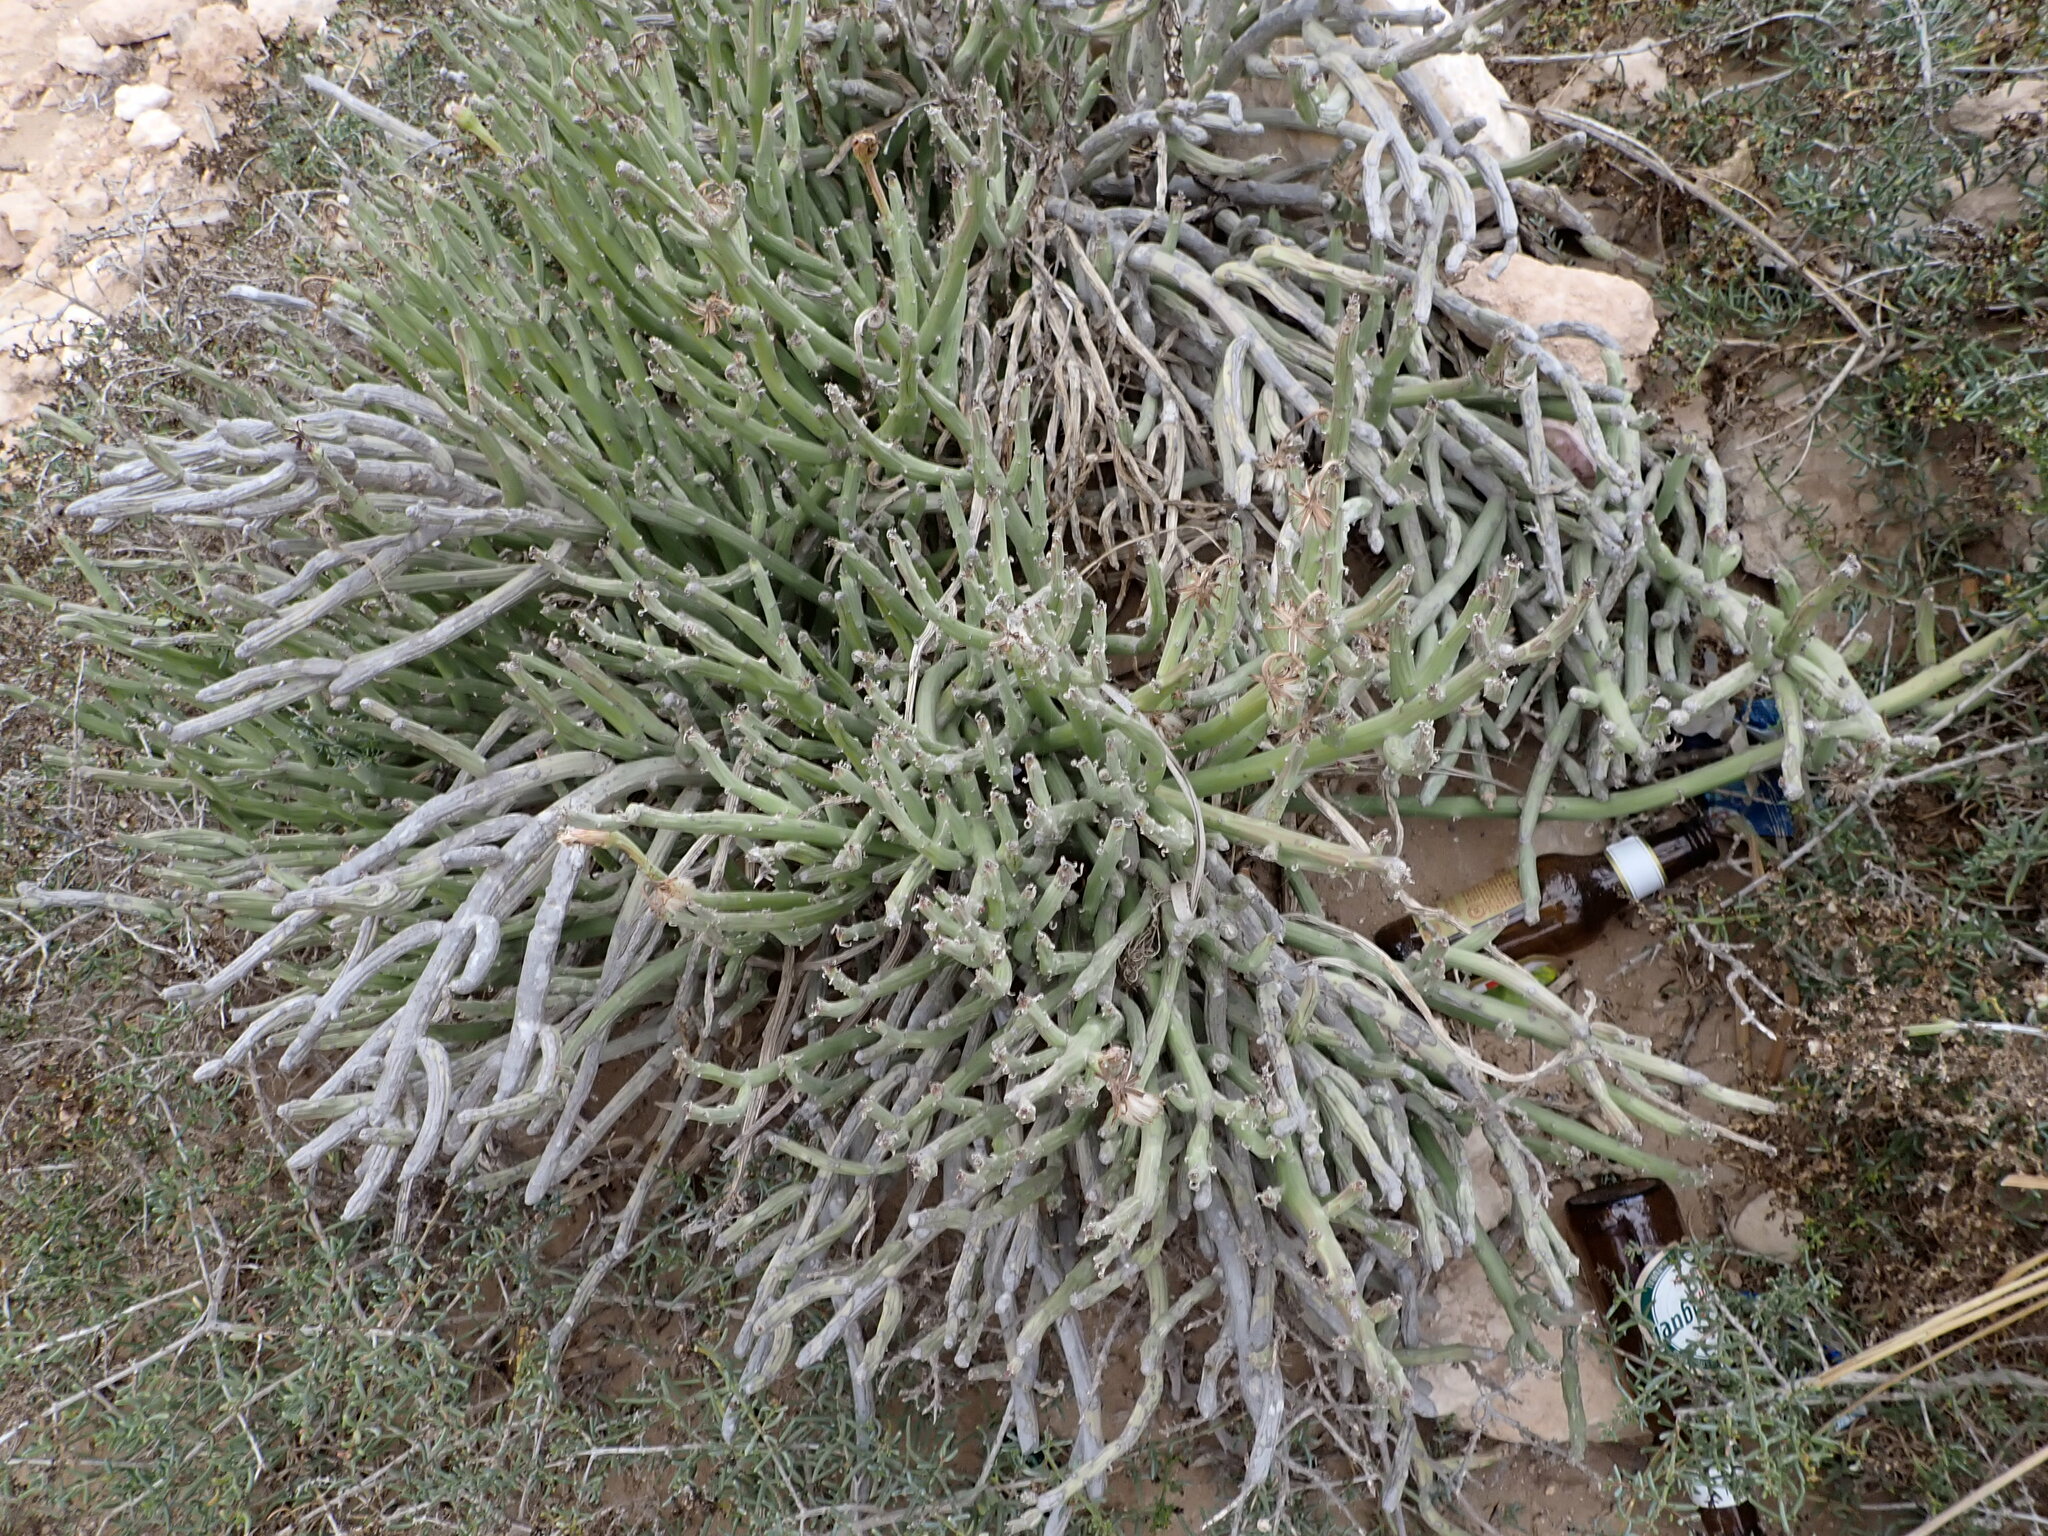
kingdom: Plantae
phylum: Tracheophyta
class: Magnoliopsida
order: Asterales
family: Asteraceae
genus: Kleinia
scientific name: Kleinia anteuphorbium
